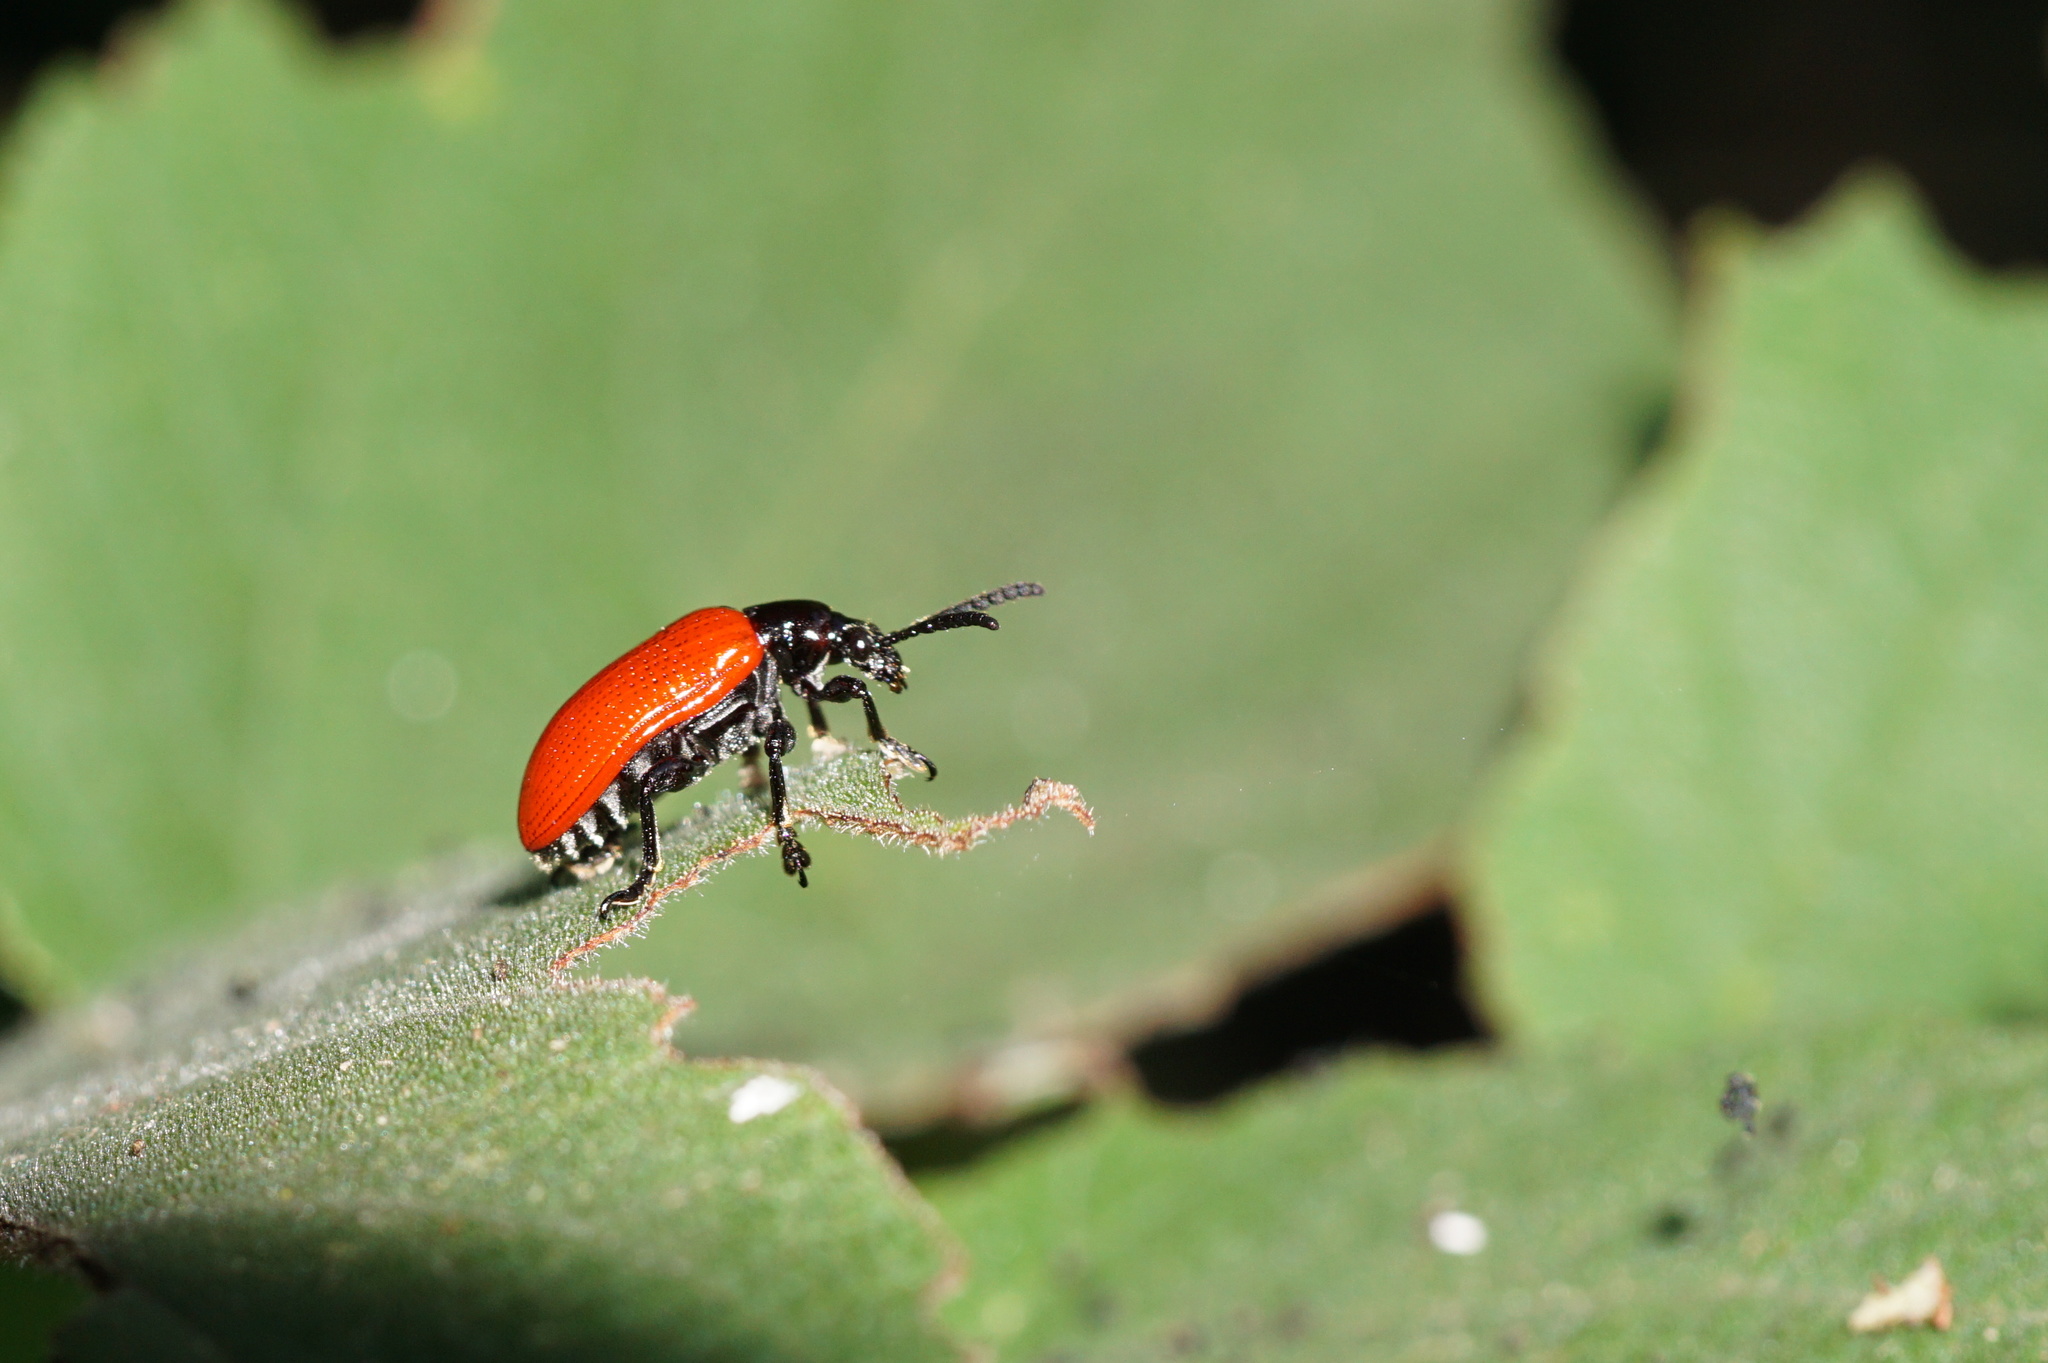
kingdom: Animalia
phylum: Arthropoda
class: Insecta
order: Coleoptera
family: Chrysomelidae
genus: Lilioceris
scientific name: Lilioceris cheni
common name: Leaf beetle
